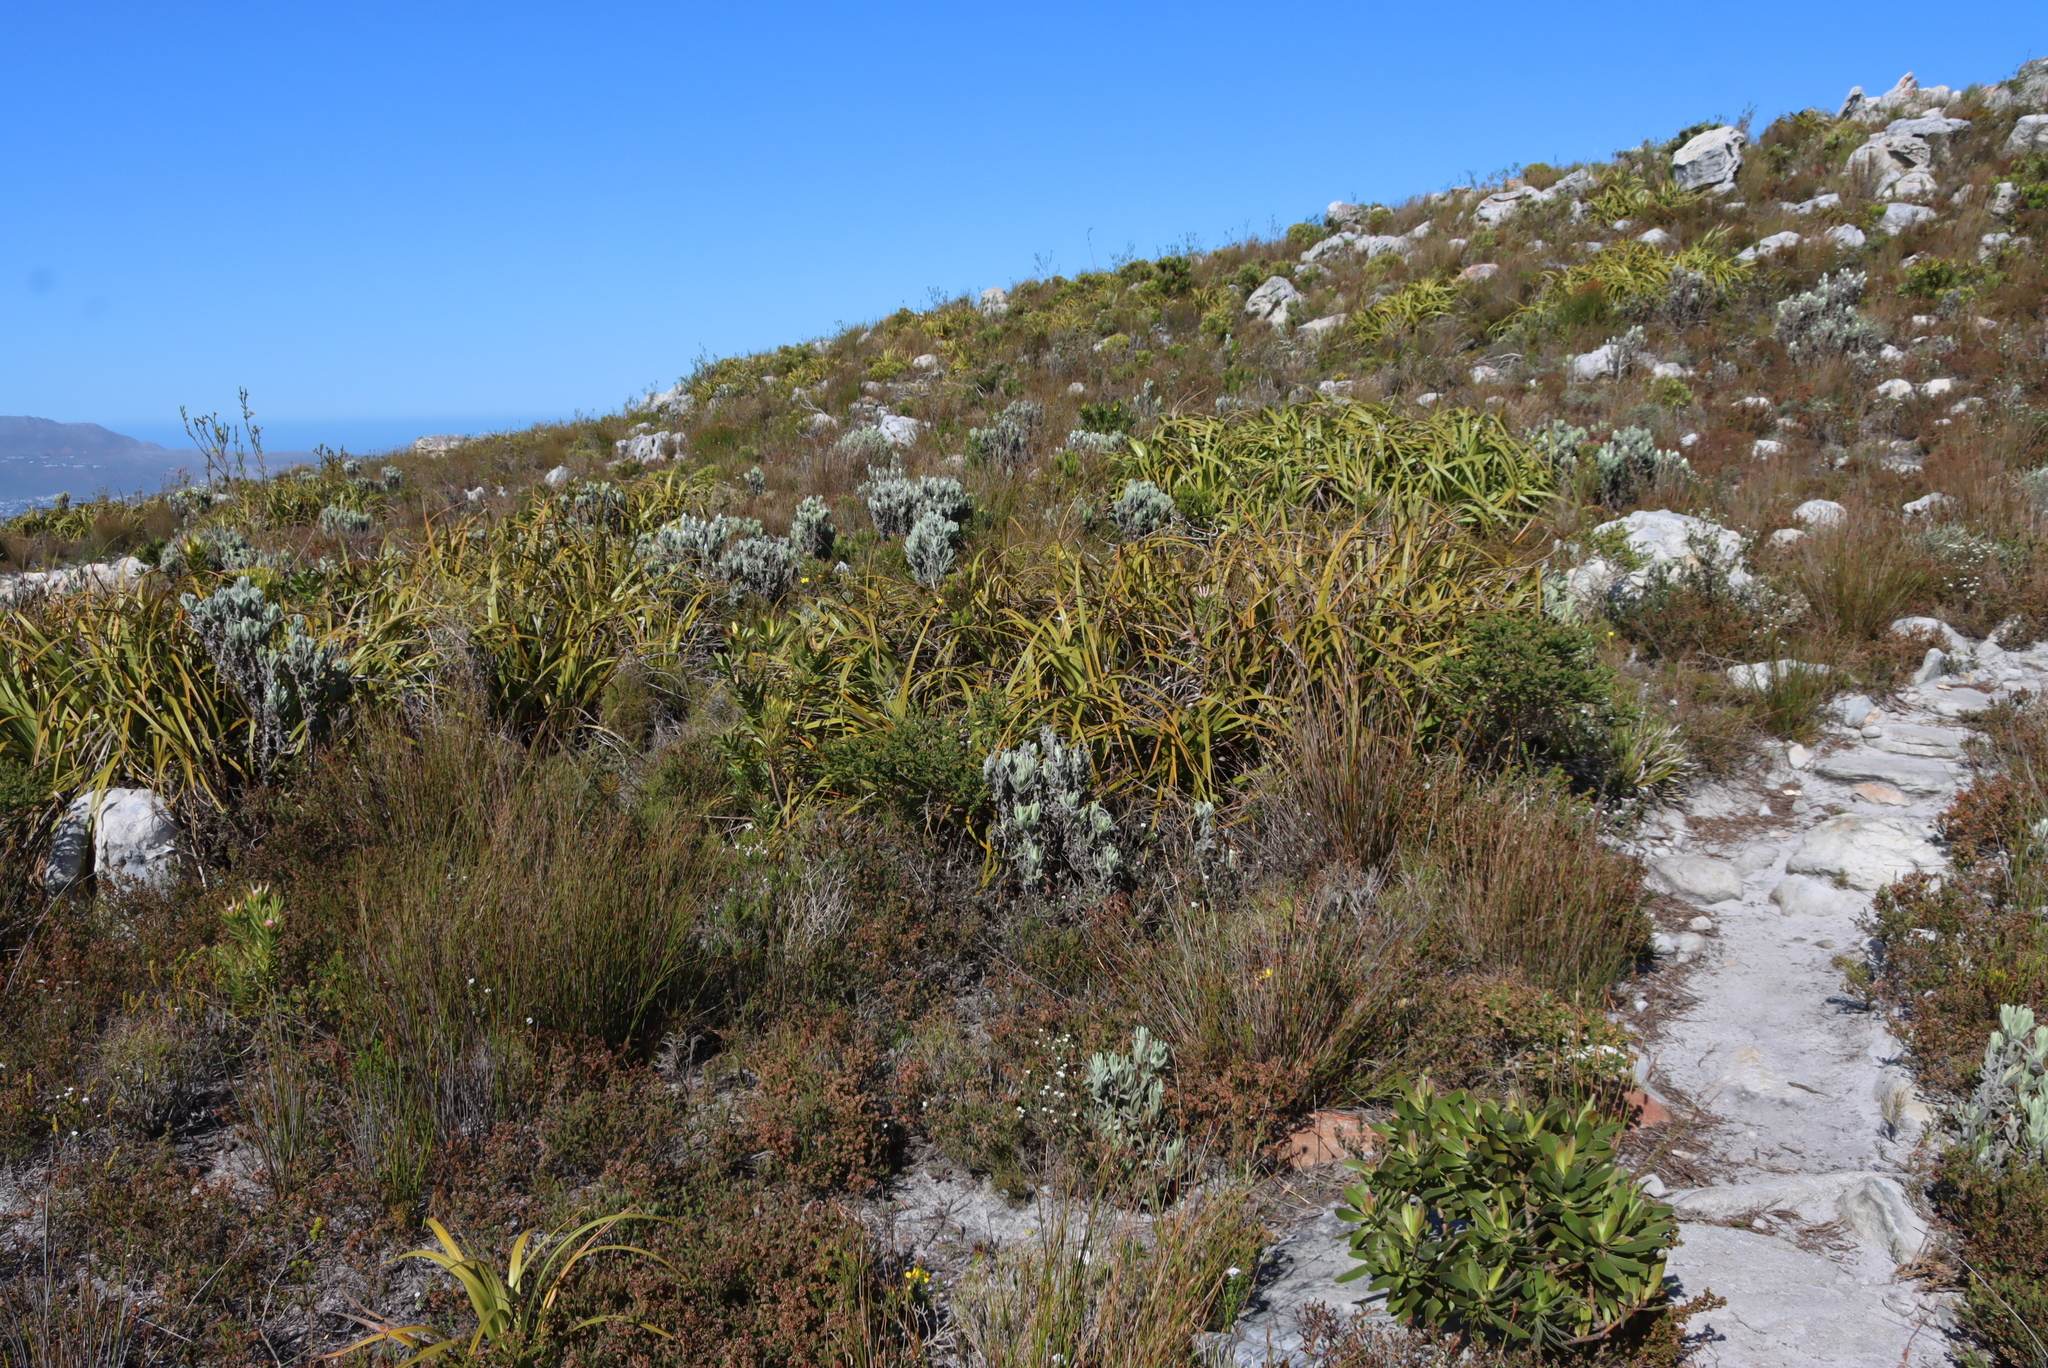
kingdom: Plantae
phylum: Tracheophyta
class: Liliopsida
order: Poales
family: Cyperaceae
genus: Tetraria
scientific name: Tetraria thermalis
